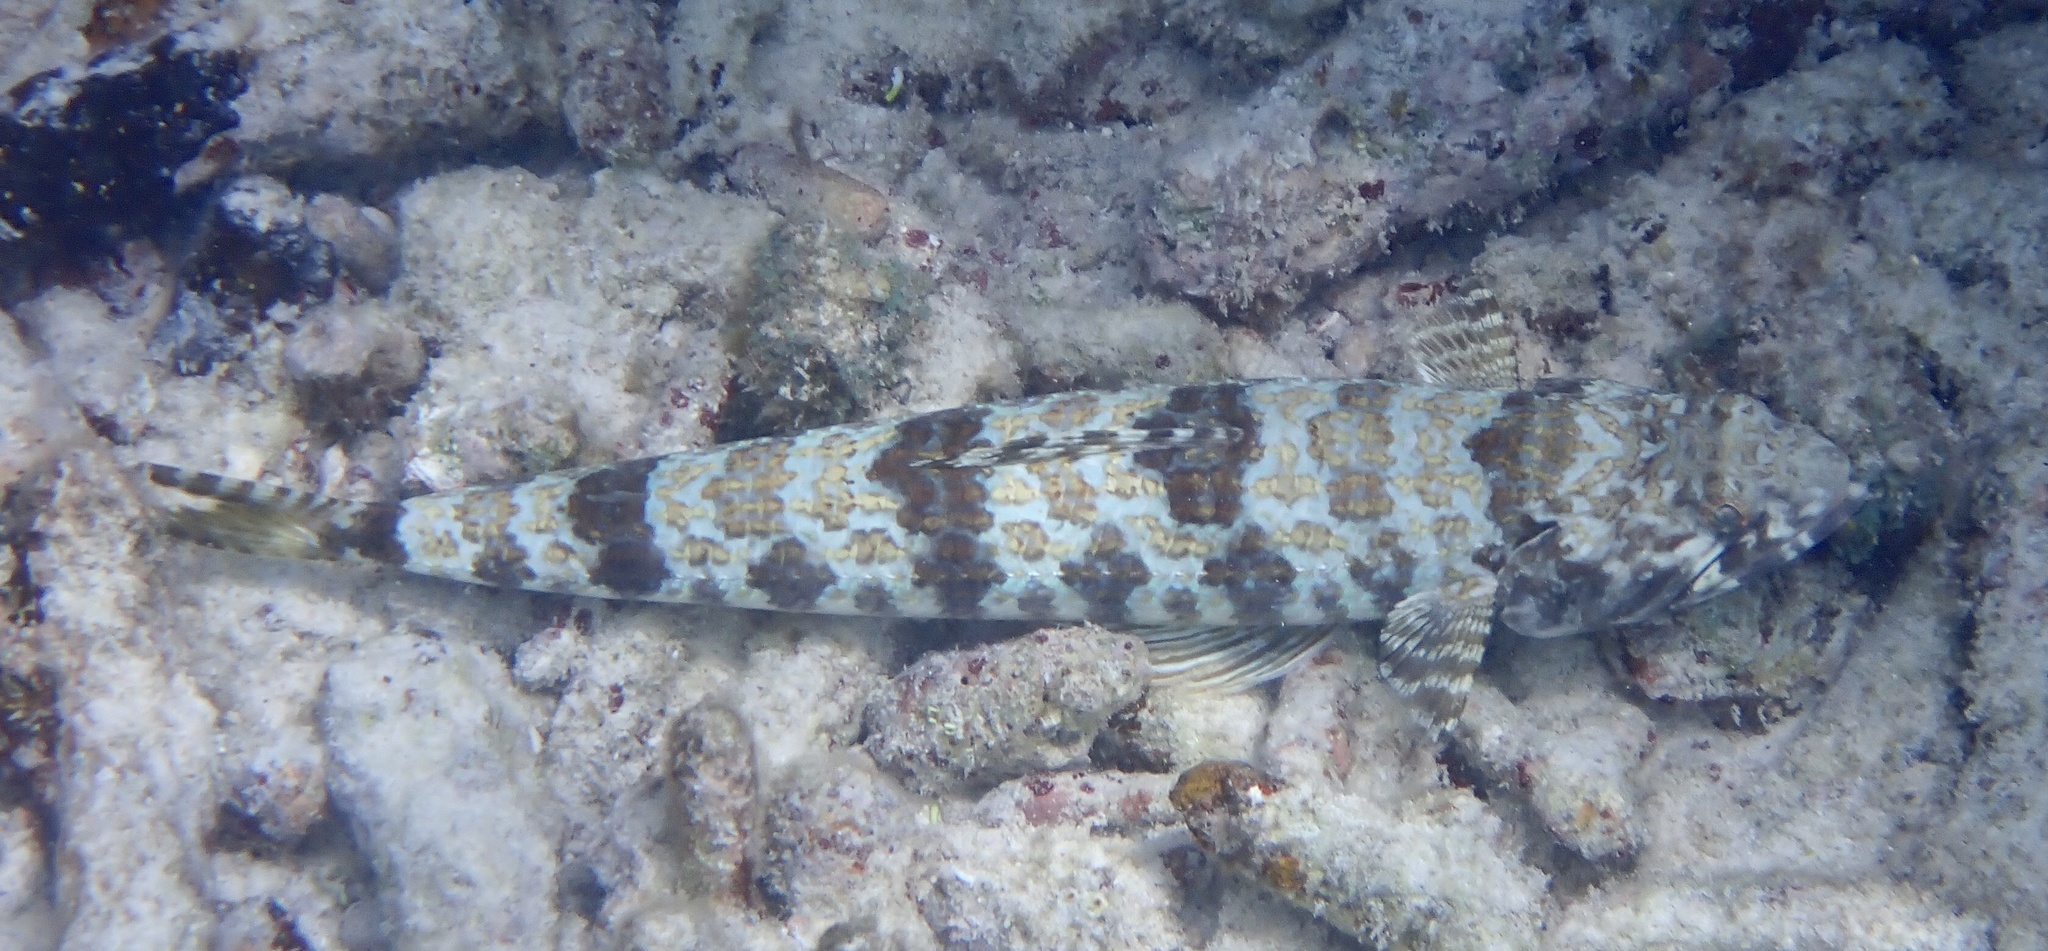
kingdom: Animalia
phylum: Chordata
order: Aulopiformes
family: Synodontidae
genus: Synodus
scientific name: Synodus intermedius
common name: Sand diver
